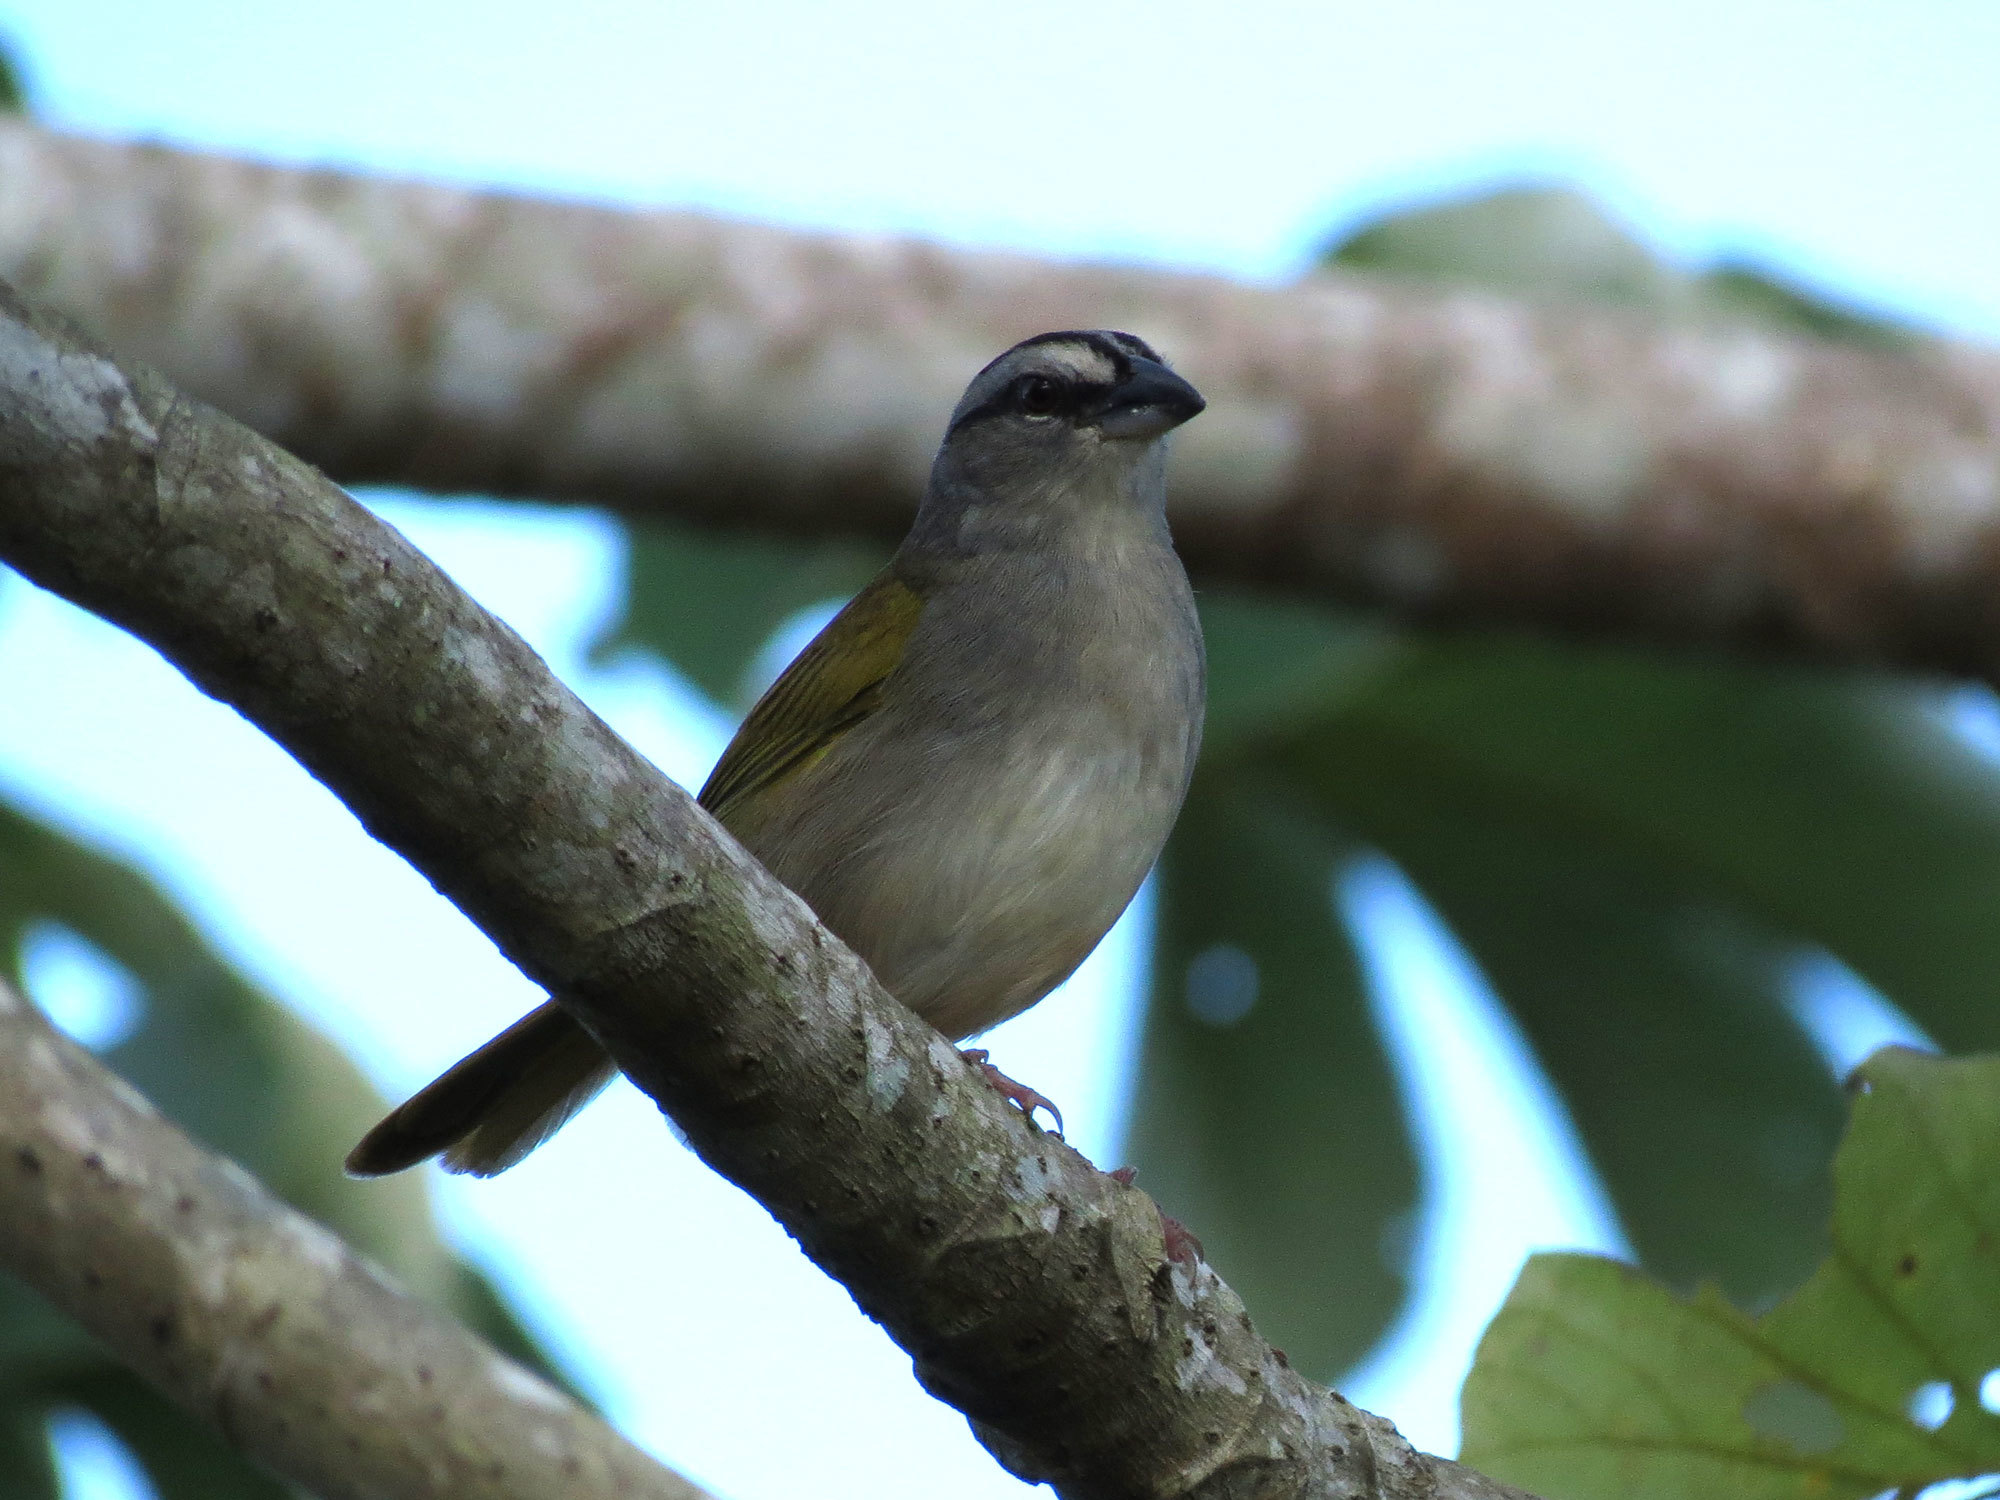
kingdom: Animalia
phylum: Chordata
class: Aves
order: Passeriformes
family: Passerellidae
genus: Arremonops
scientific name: Arremonops conirostris
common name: Black-striped sparrow
